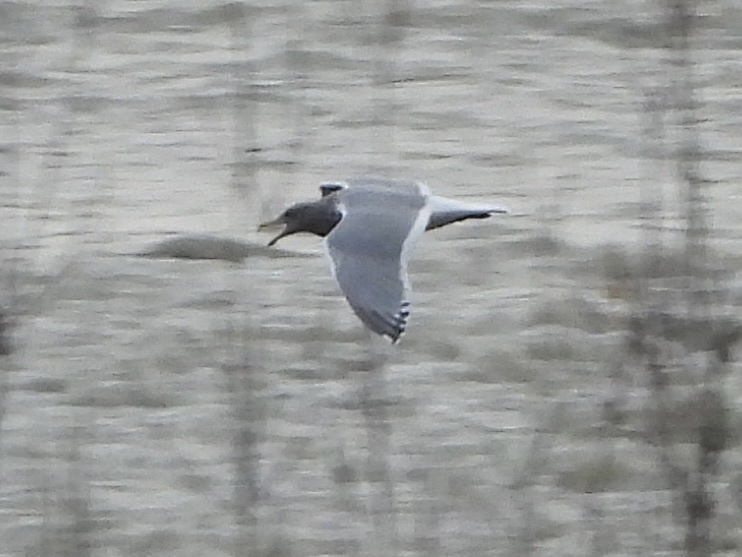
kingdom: Animalia
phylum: Chordata
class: Aves
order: Charadriiformes
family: Laridae
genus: Larus
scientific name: Larus
